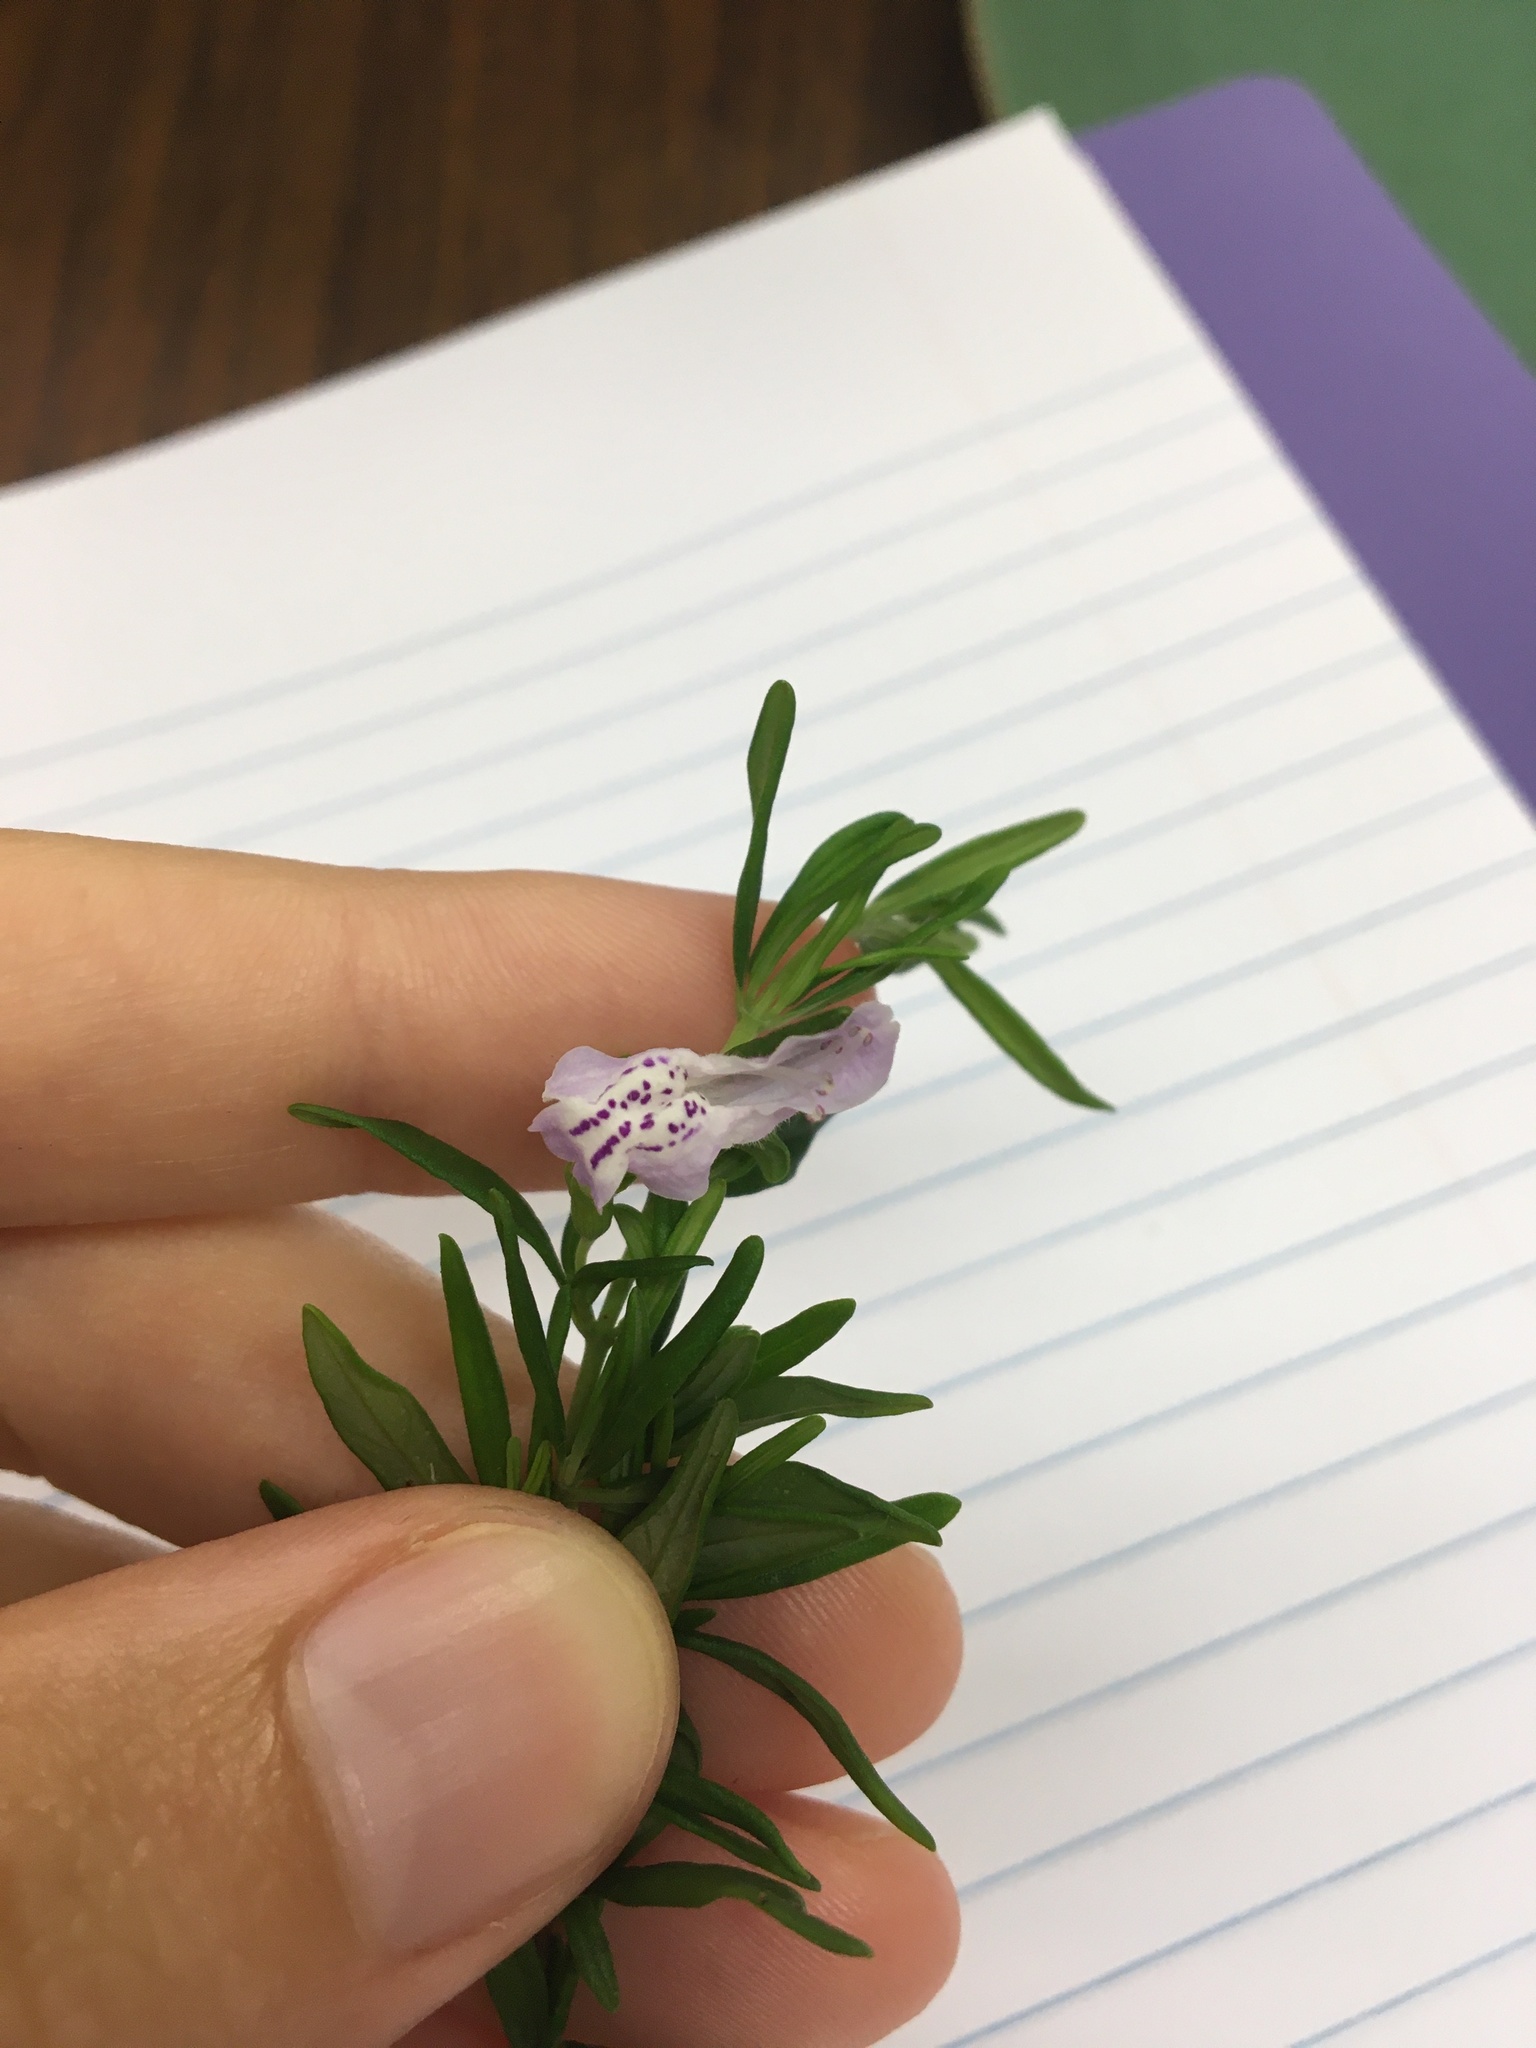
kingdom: Plantae
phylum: Tracheophyta
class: Magnoliopsida
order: Lamiales
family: Lamiaceae
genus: Conradina
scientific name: Conradina canescens
